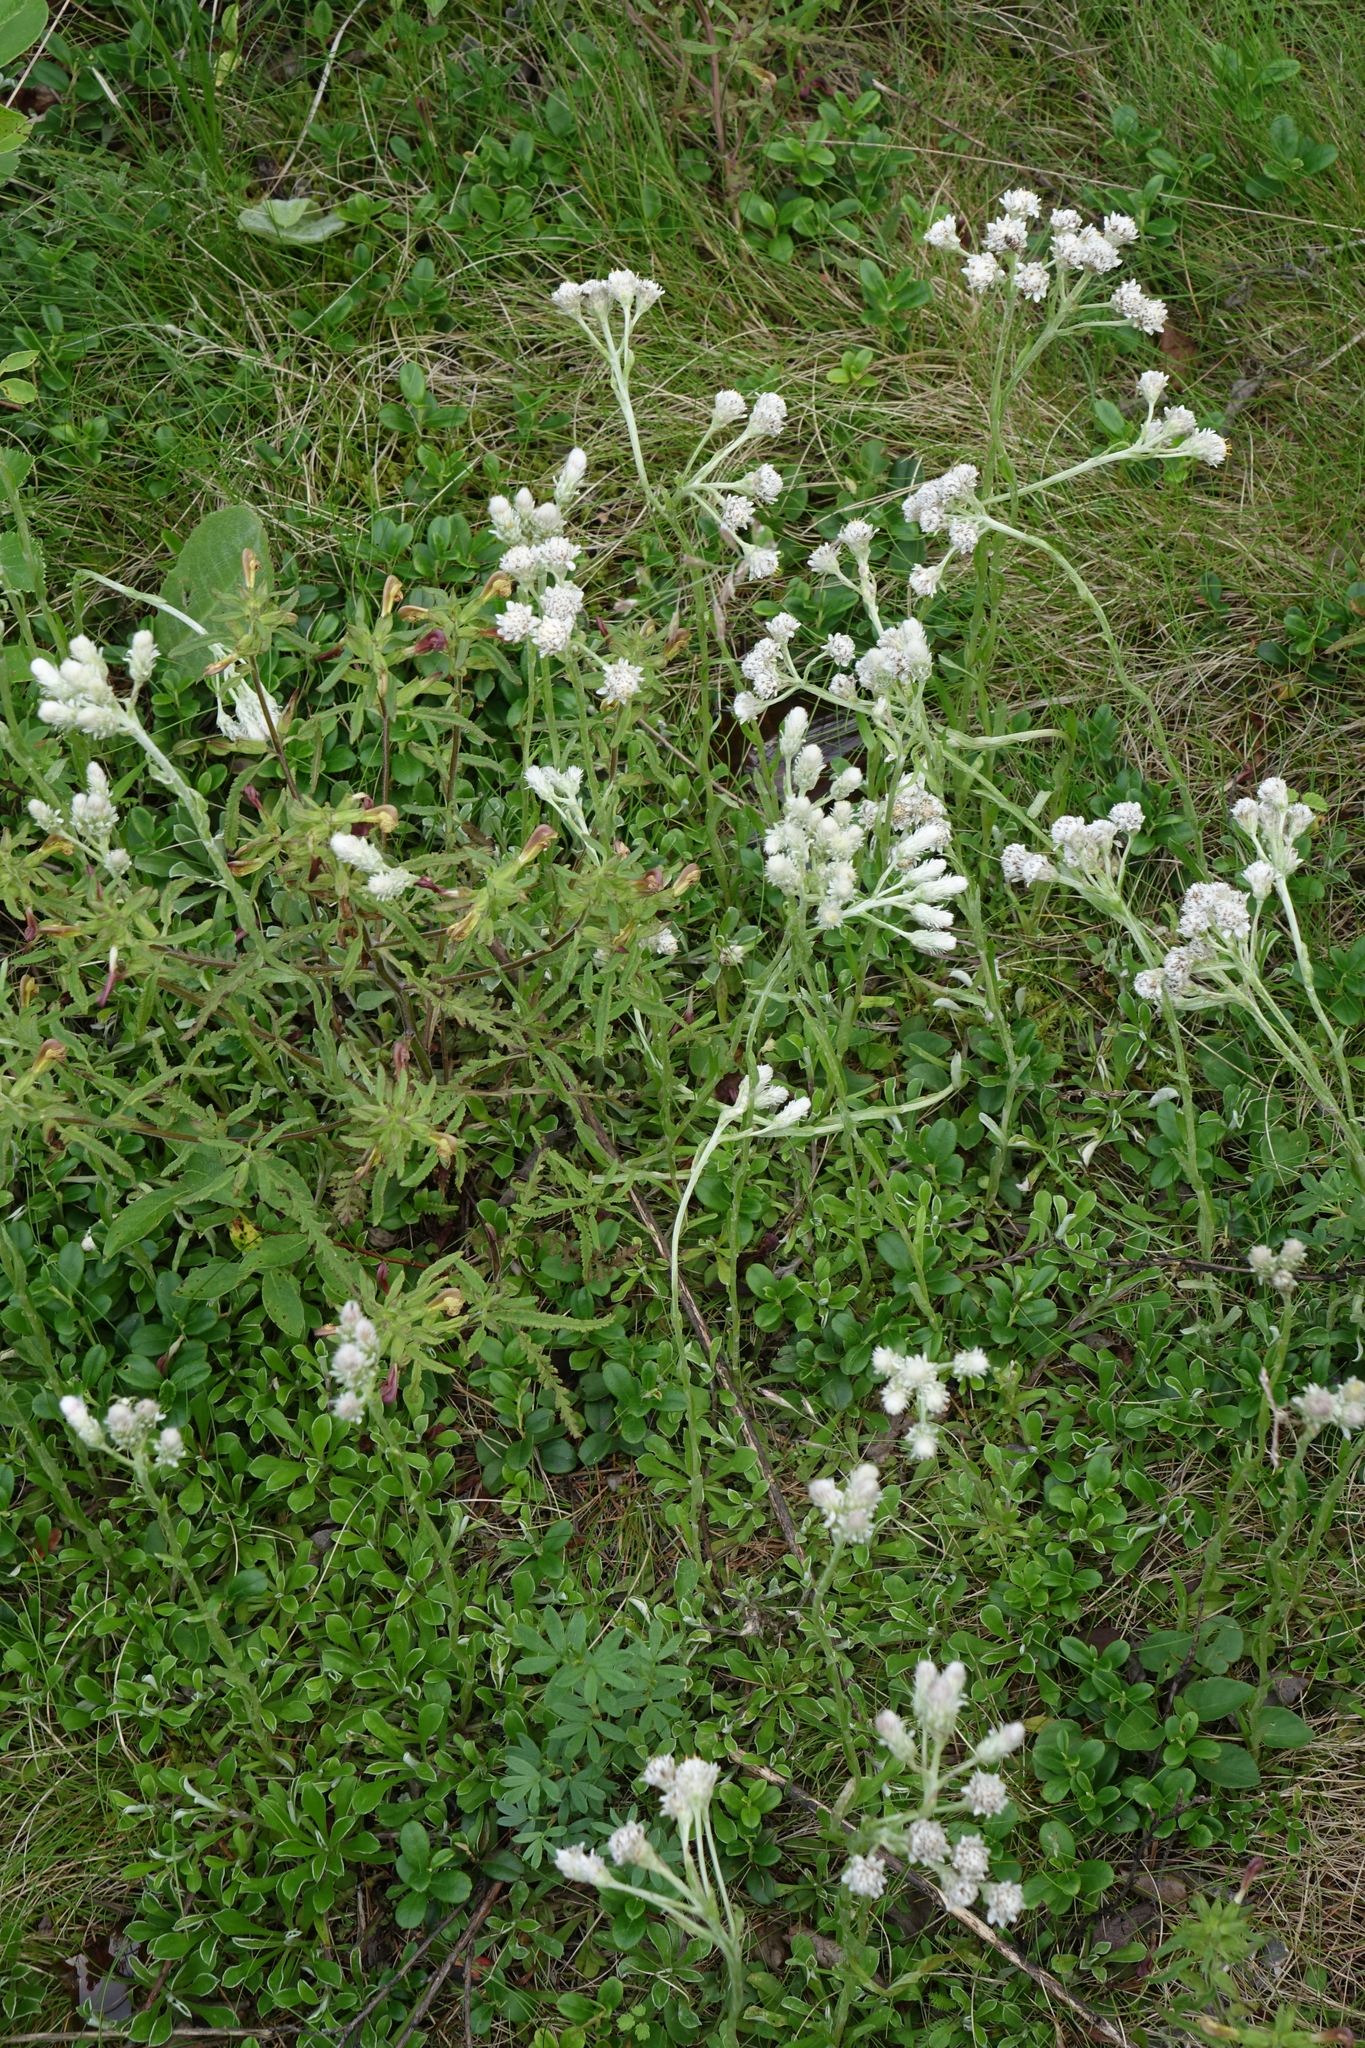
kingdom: Plantae
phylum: Tracheophyta
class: Magnoliopsida
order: Asterales
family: Asteraceae
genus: Antennaria
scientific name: Antennaria dioica
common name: Mountain everlasting
